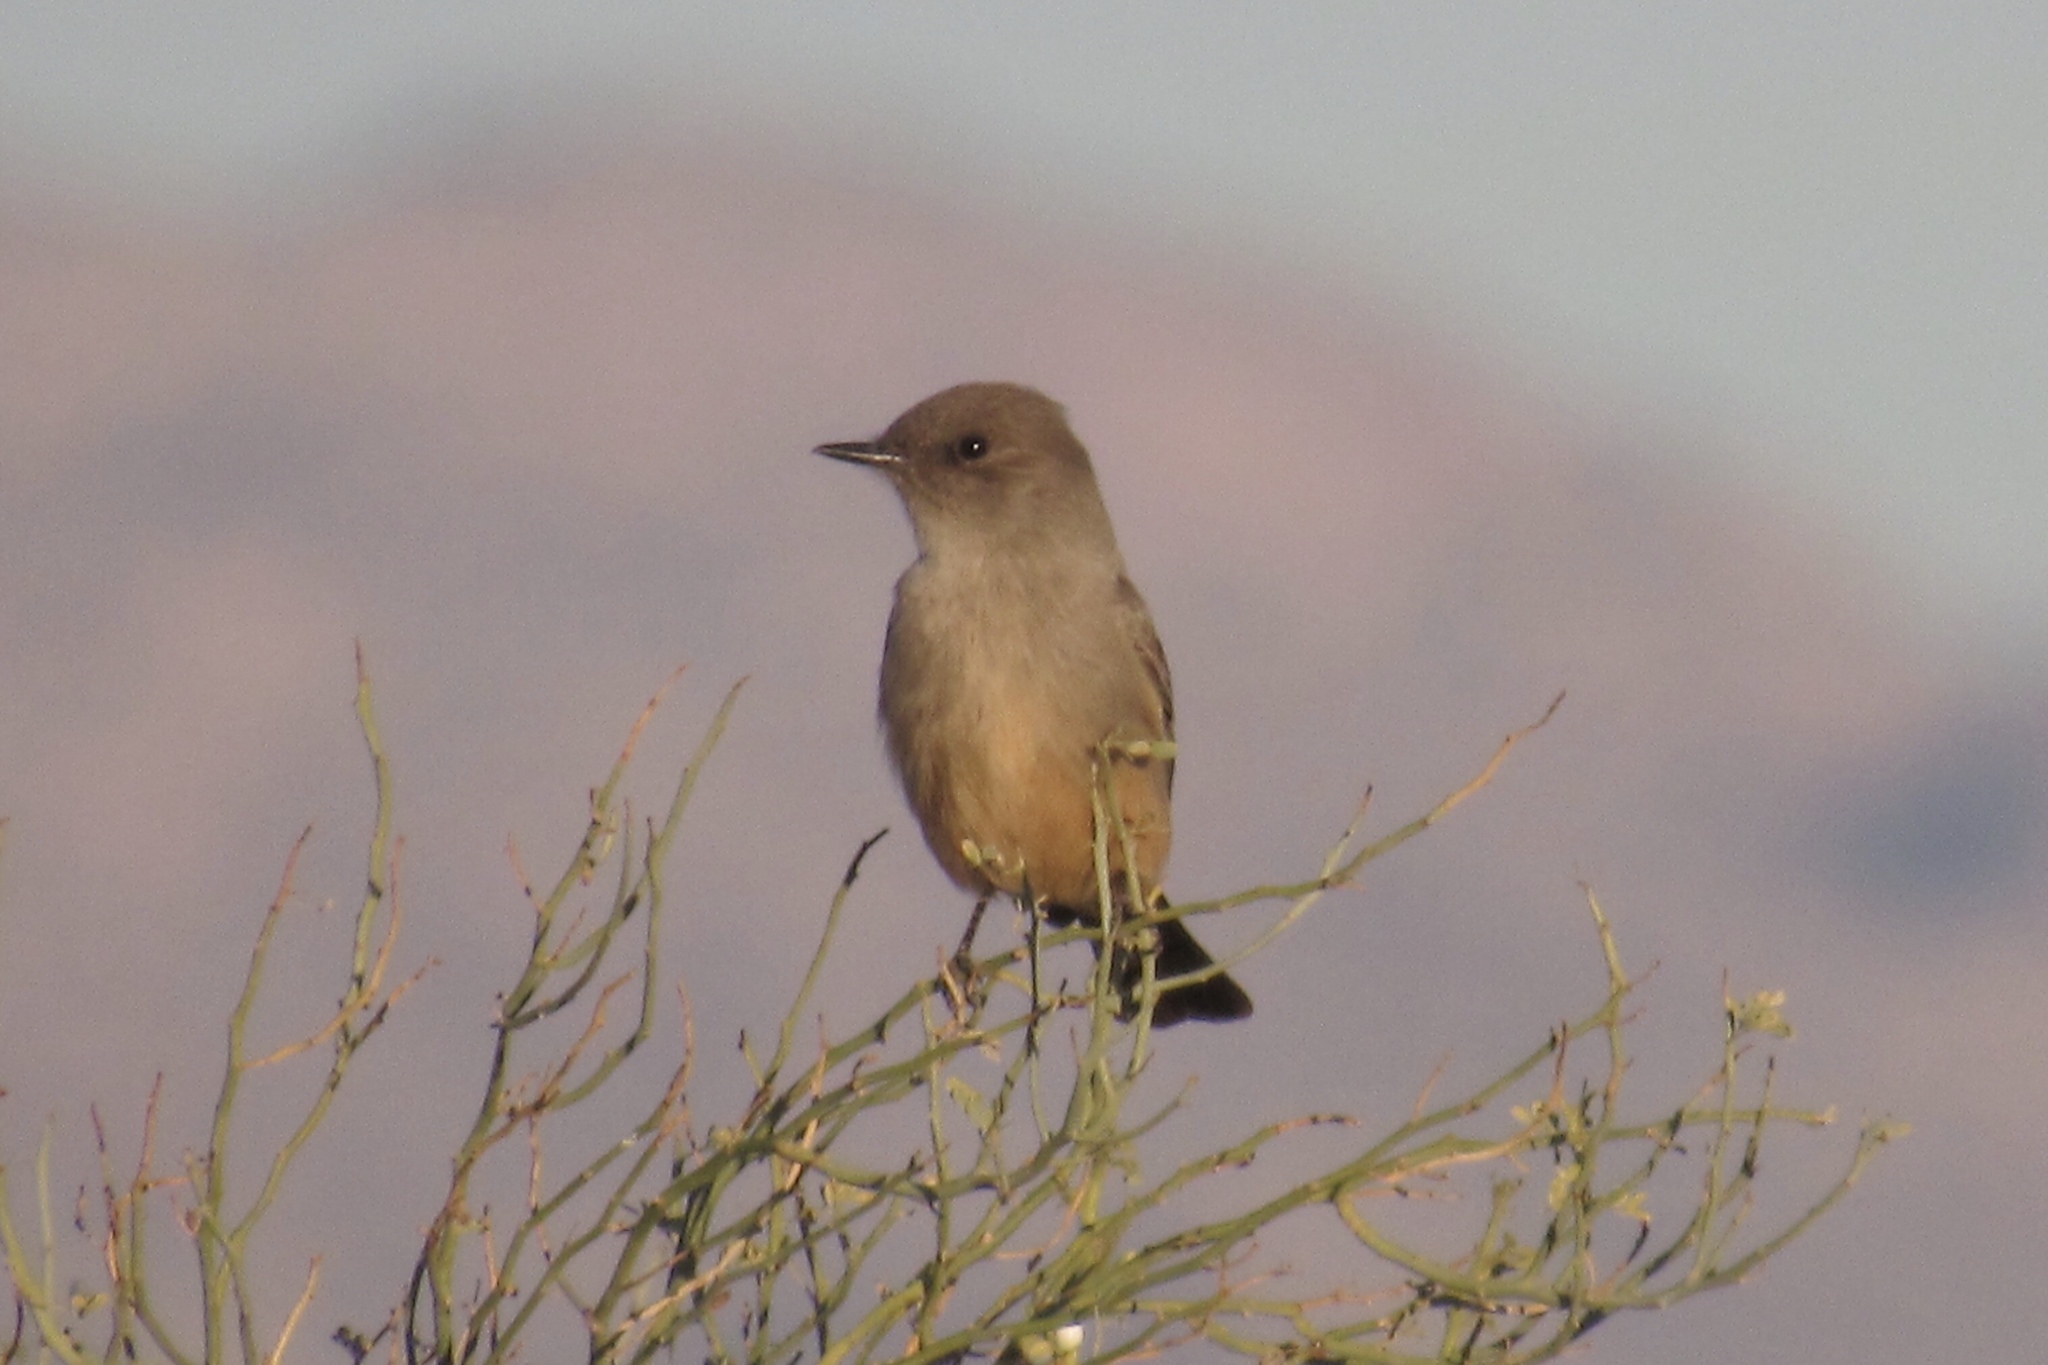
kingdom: Animalia
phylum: Chordata
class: Aves
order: Passeriformes
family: Tyrannidae
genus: Sayornis
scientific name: Sayornis saya
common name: Say's phoebe
